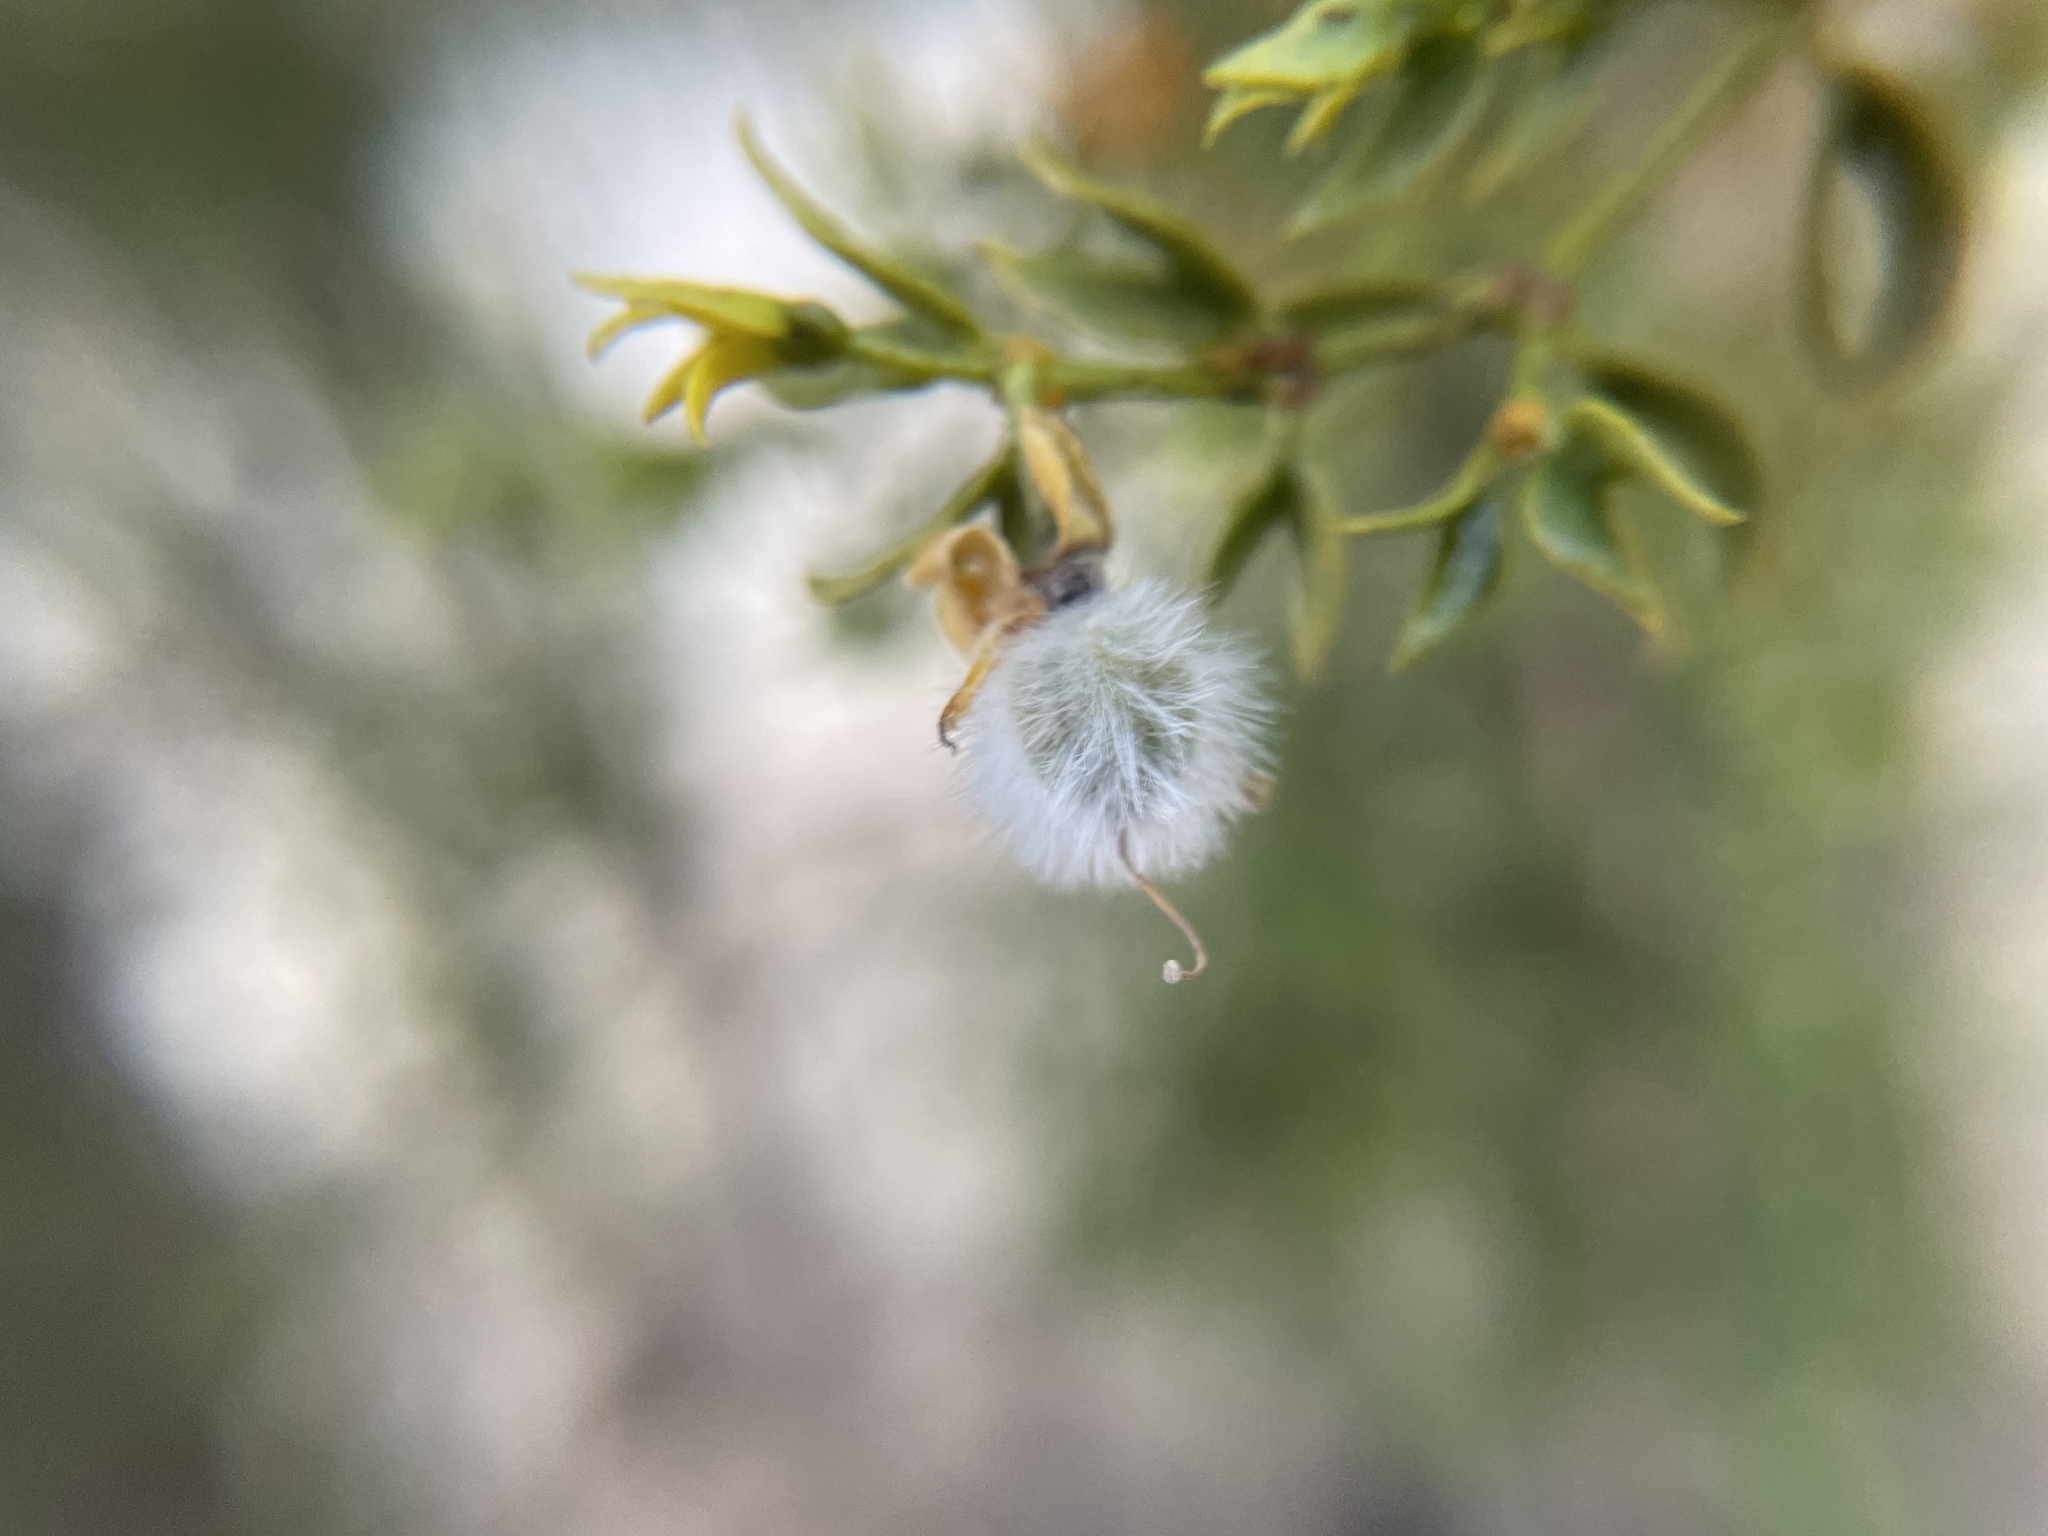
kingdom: Plantae
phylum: Tracheophyta
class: Magnoliopsida
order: Zygophyllales
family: Zygophyllaceae
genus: Larrea
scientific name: Larrea tridentata
